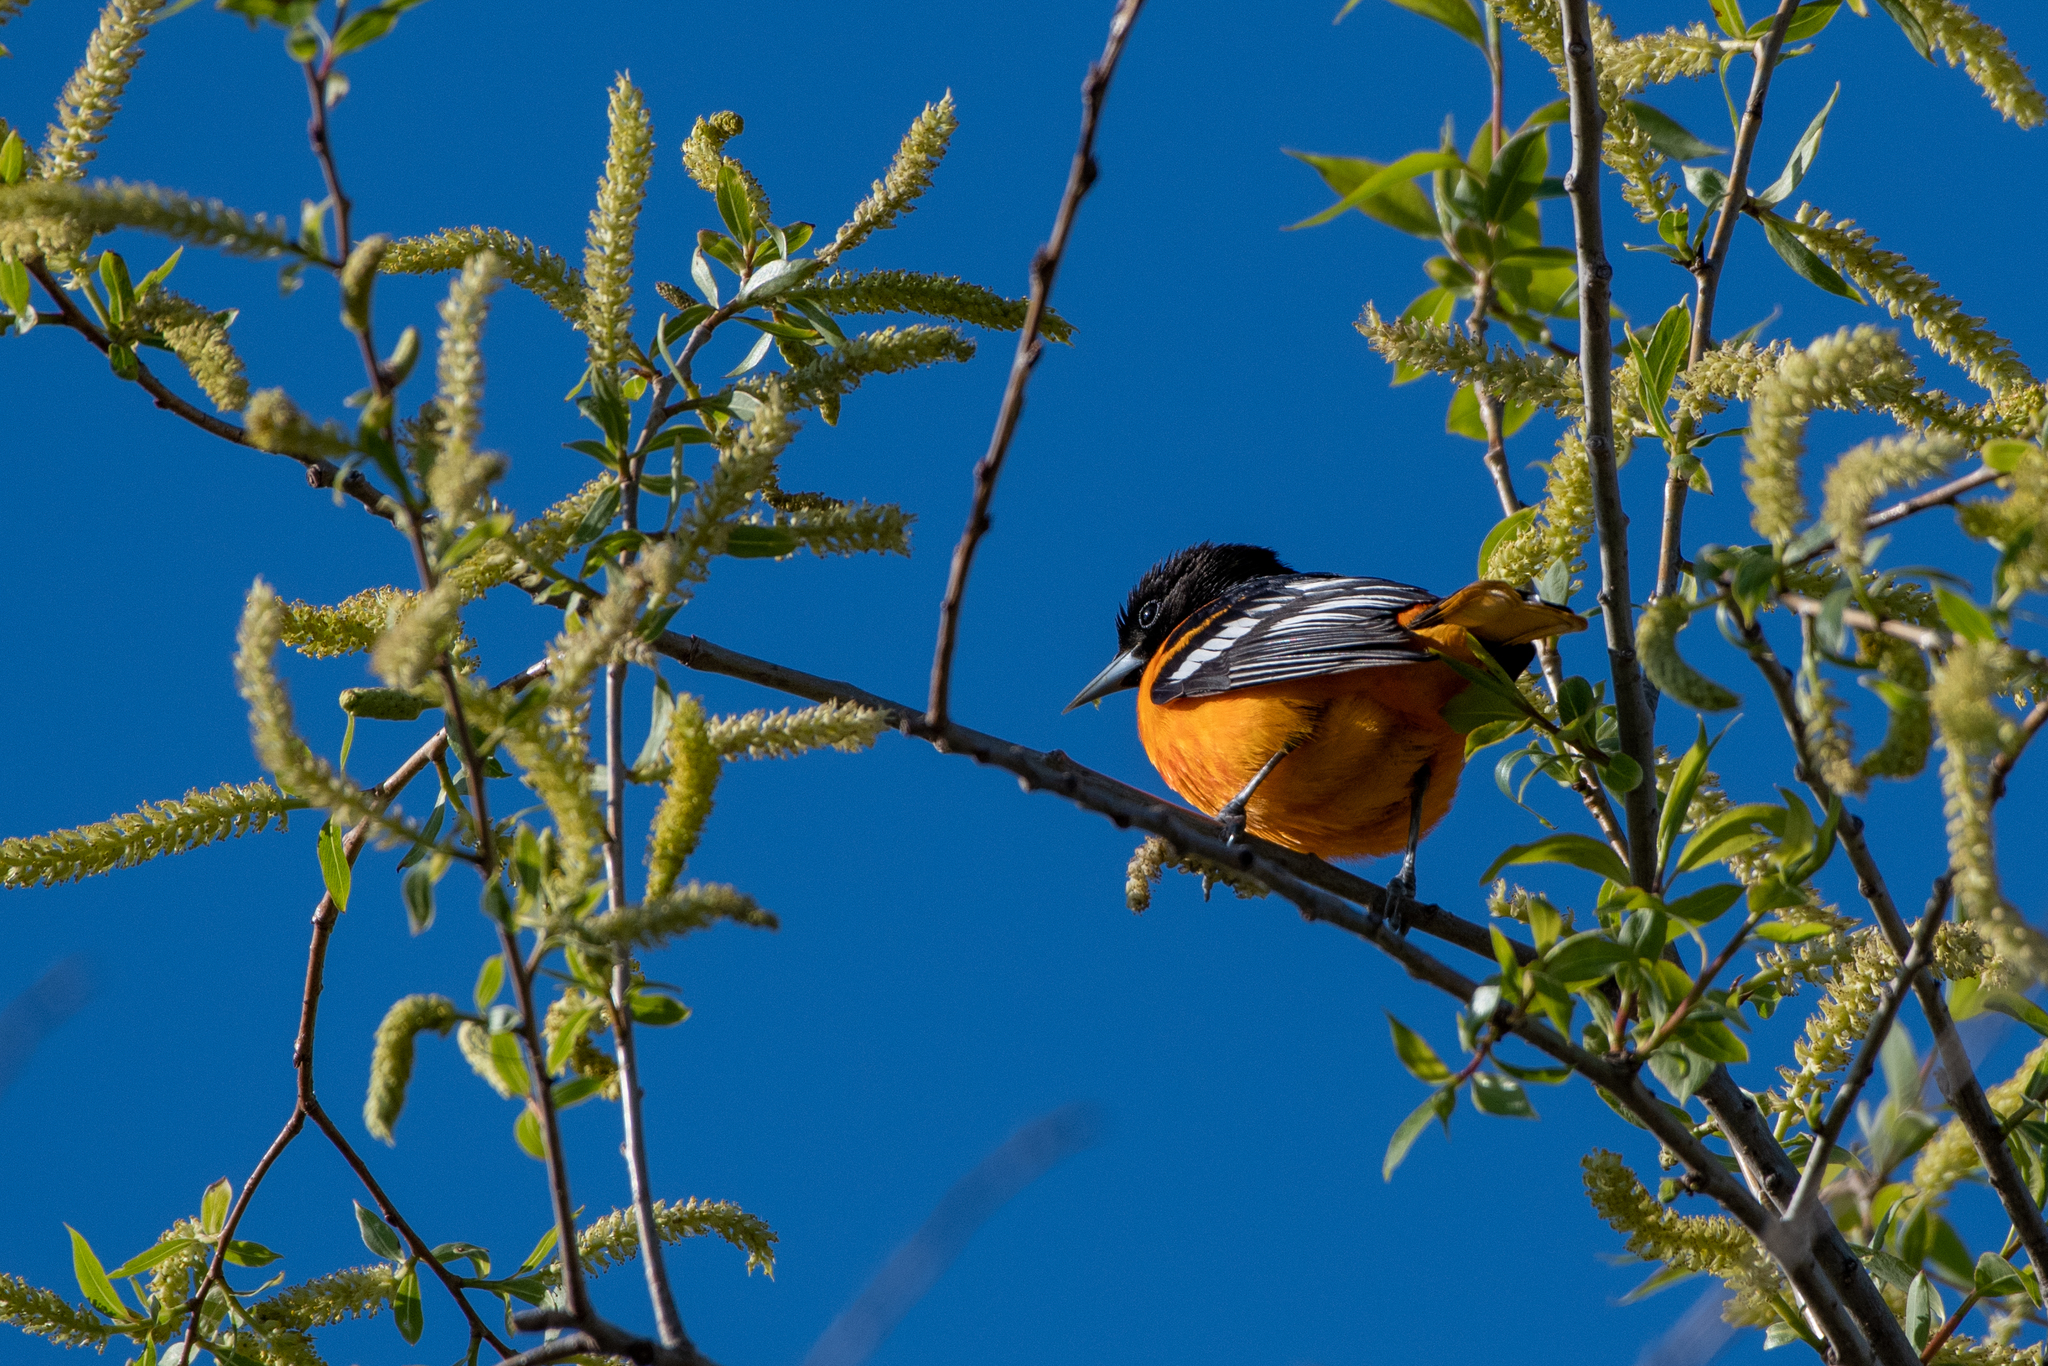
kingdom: Animalia
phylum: Chordata
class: Aves
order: Passeriformes
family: Icteridae
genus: Icterus
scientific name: Icterus galbula
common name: Baltimore oriole
